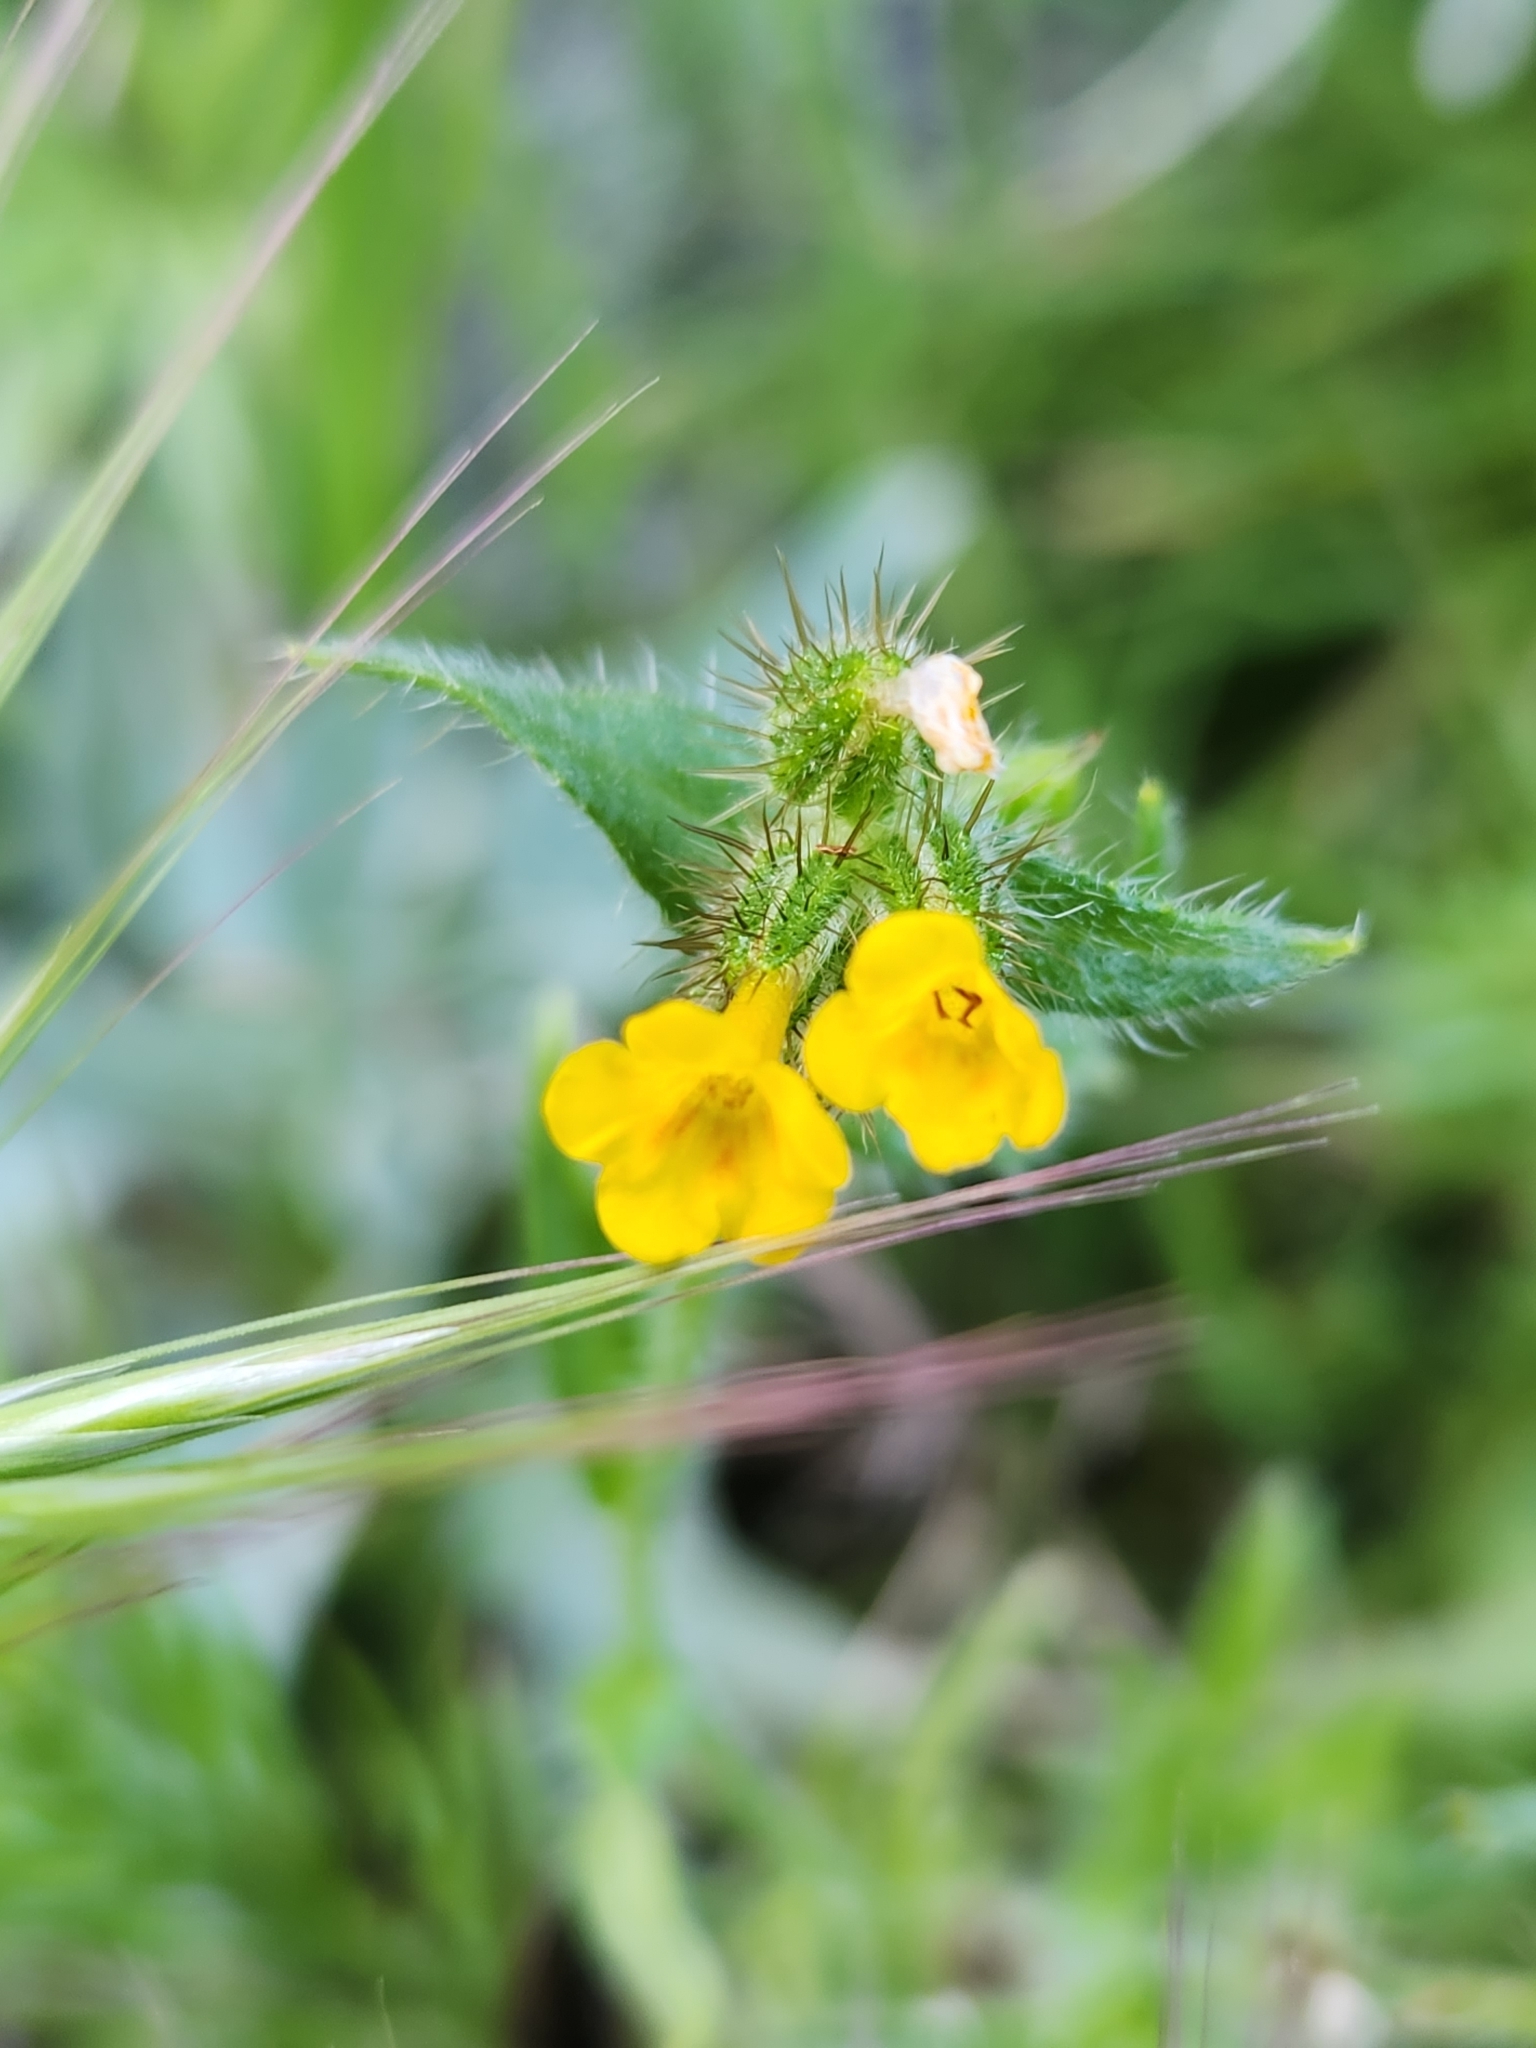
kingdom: Plantae
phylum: Tracheophyta
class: Magnoliopsida
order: Boraginales
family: Boraginaceae
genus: Amsinckia
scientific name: Amsinckia menziesii
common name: Menzies' fiddleneck
